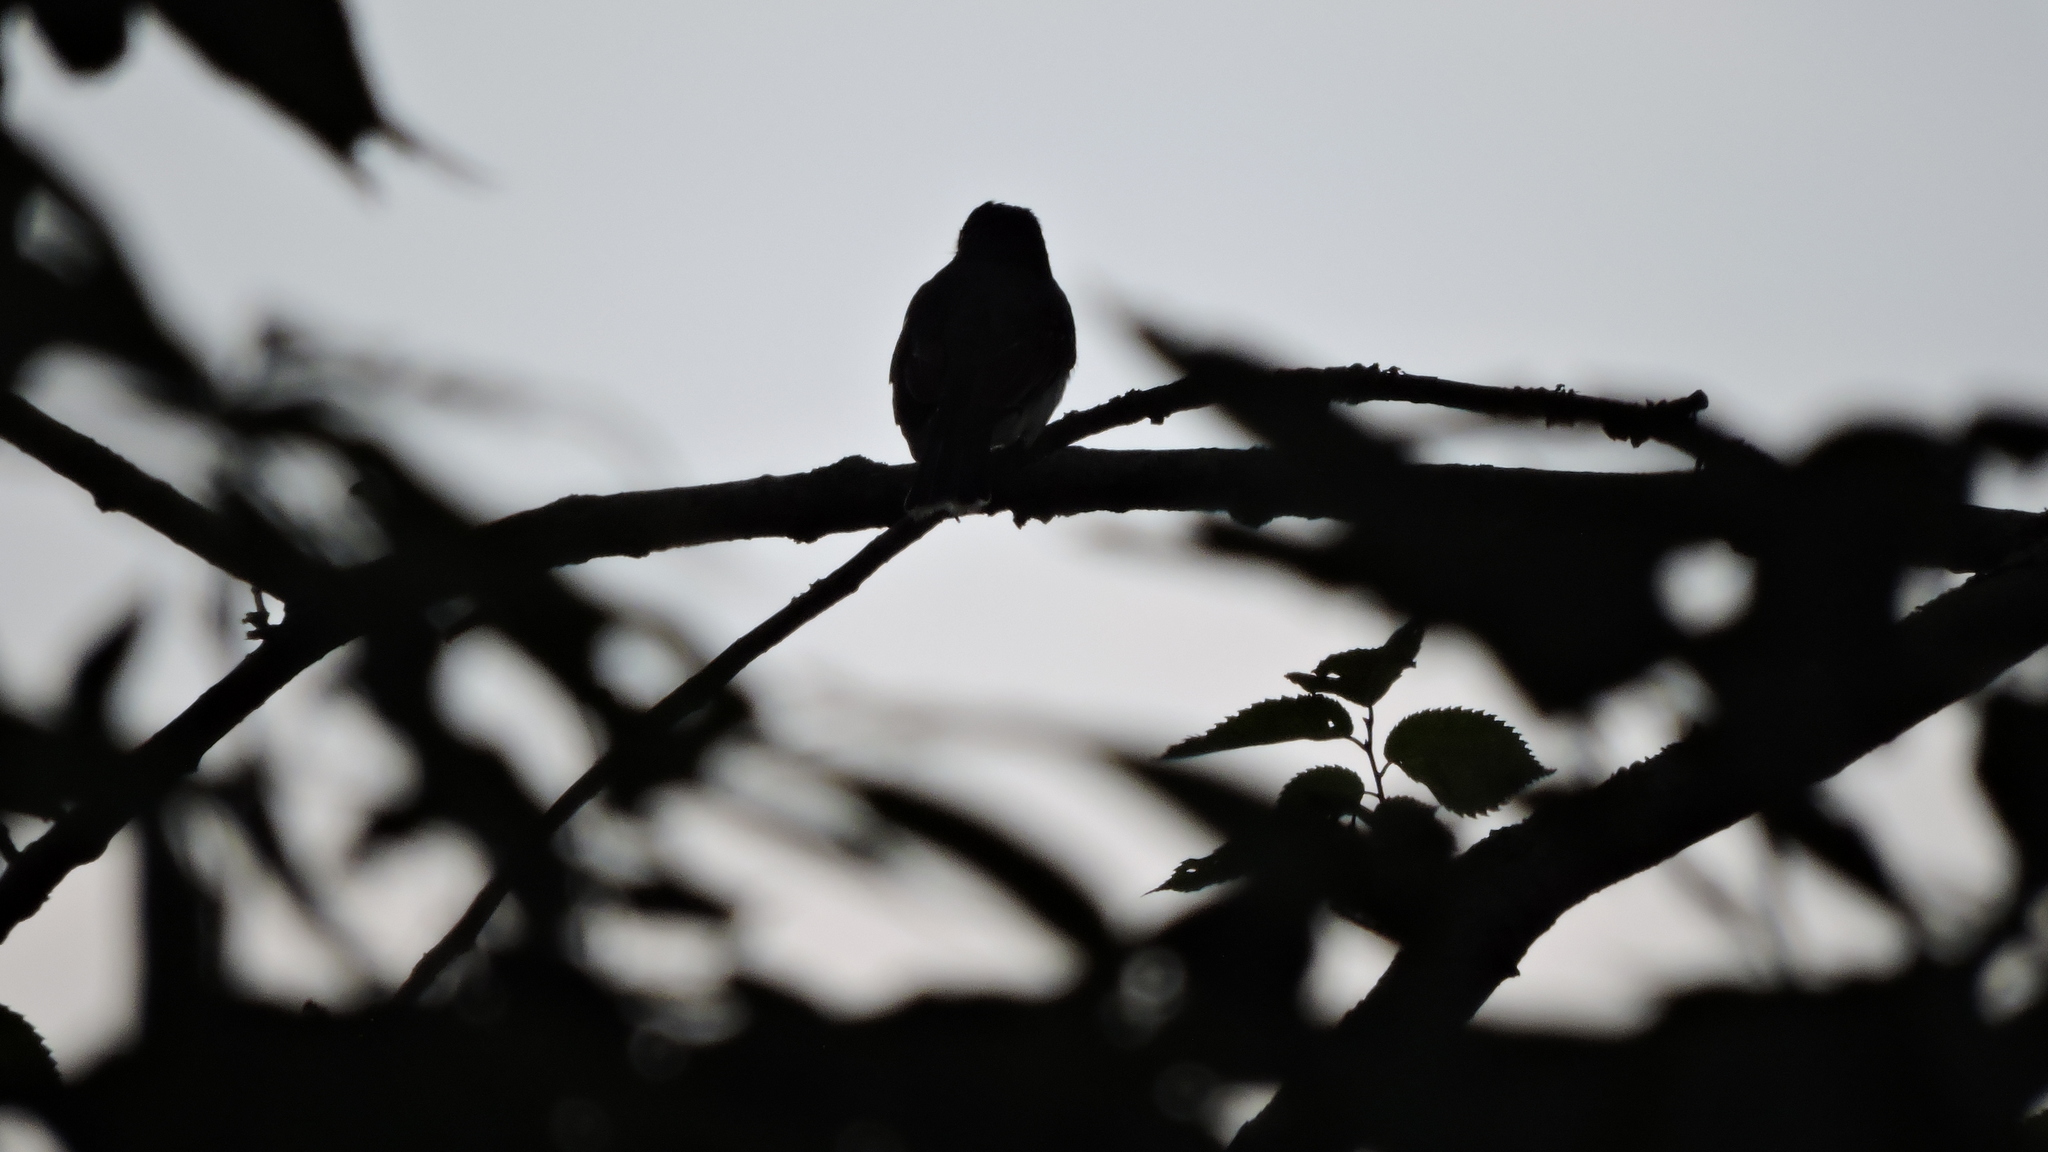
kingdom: Animalia
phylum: Chordata
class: Aves
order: Passeriformes
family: Tyrannidae
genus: Tyrannus
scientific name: Tyrannus tyrannus
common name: Eastern kingbird
